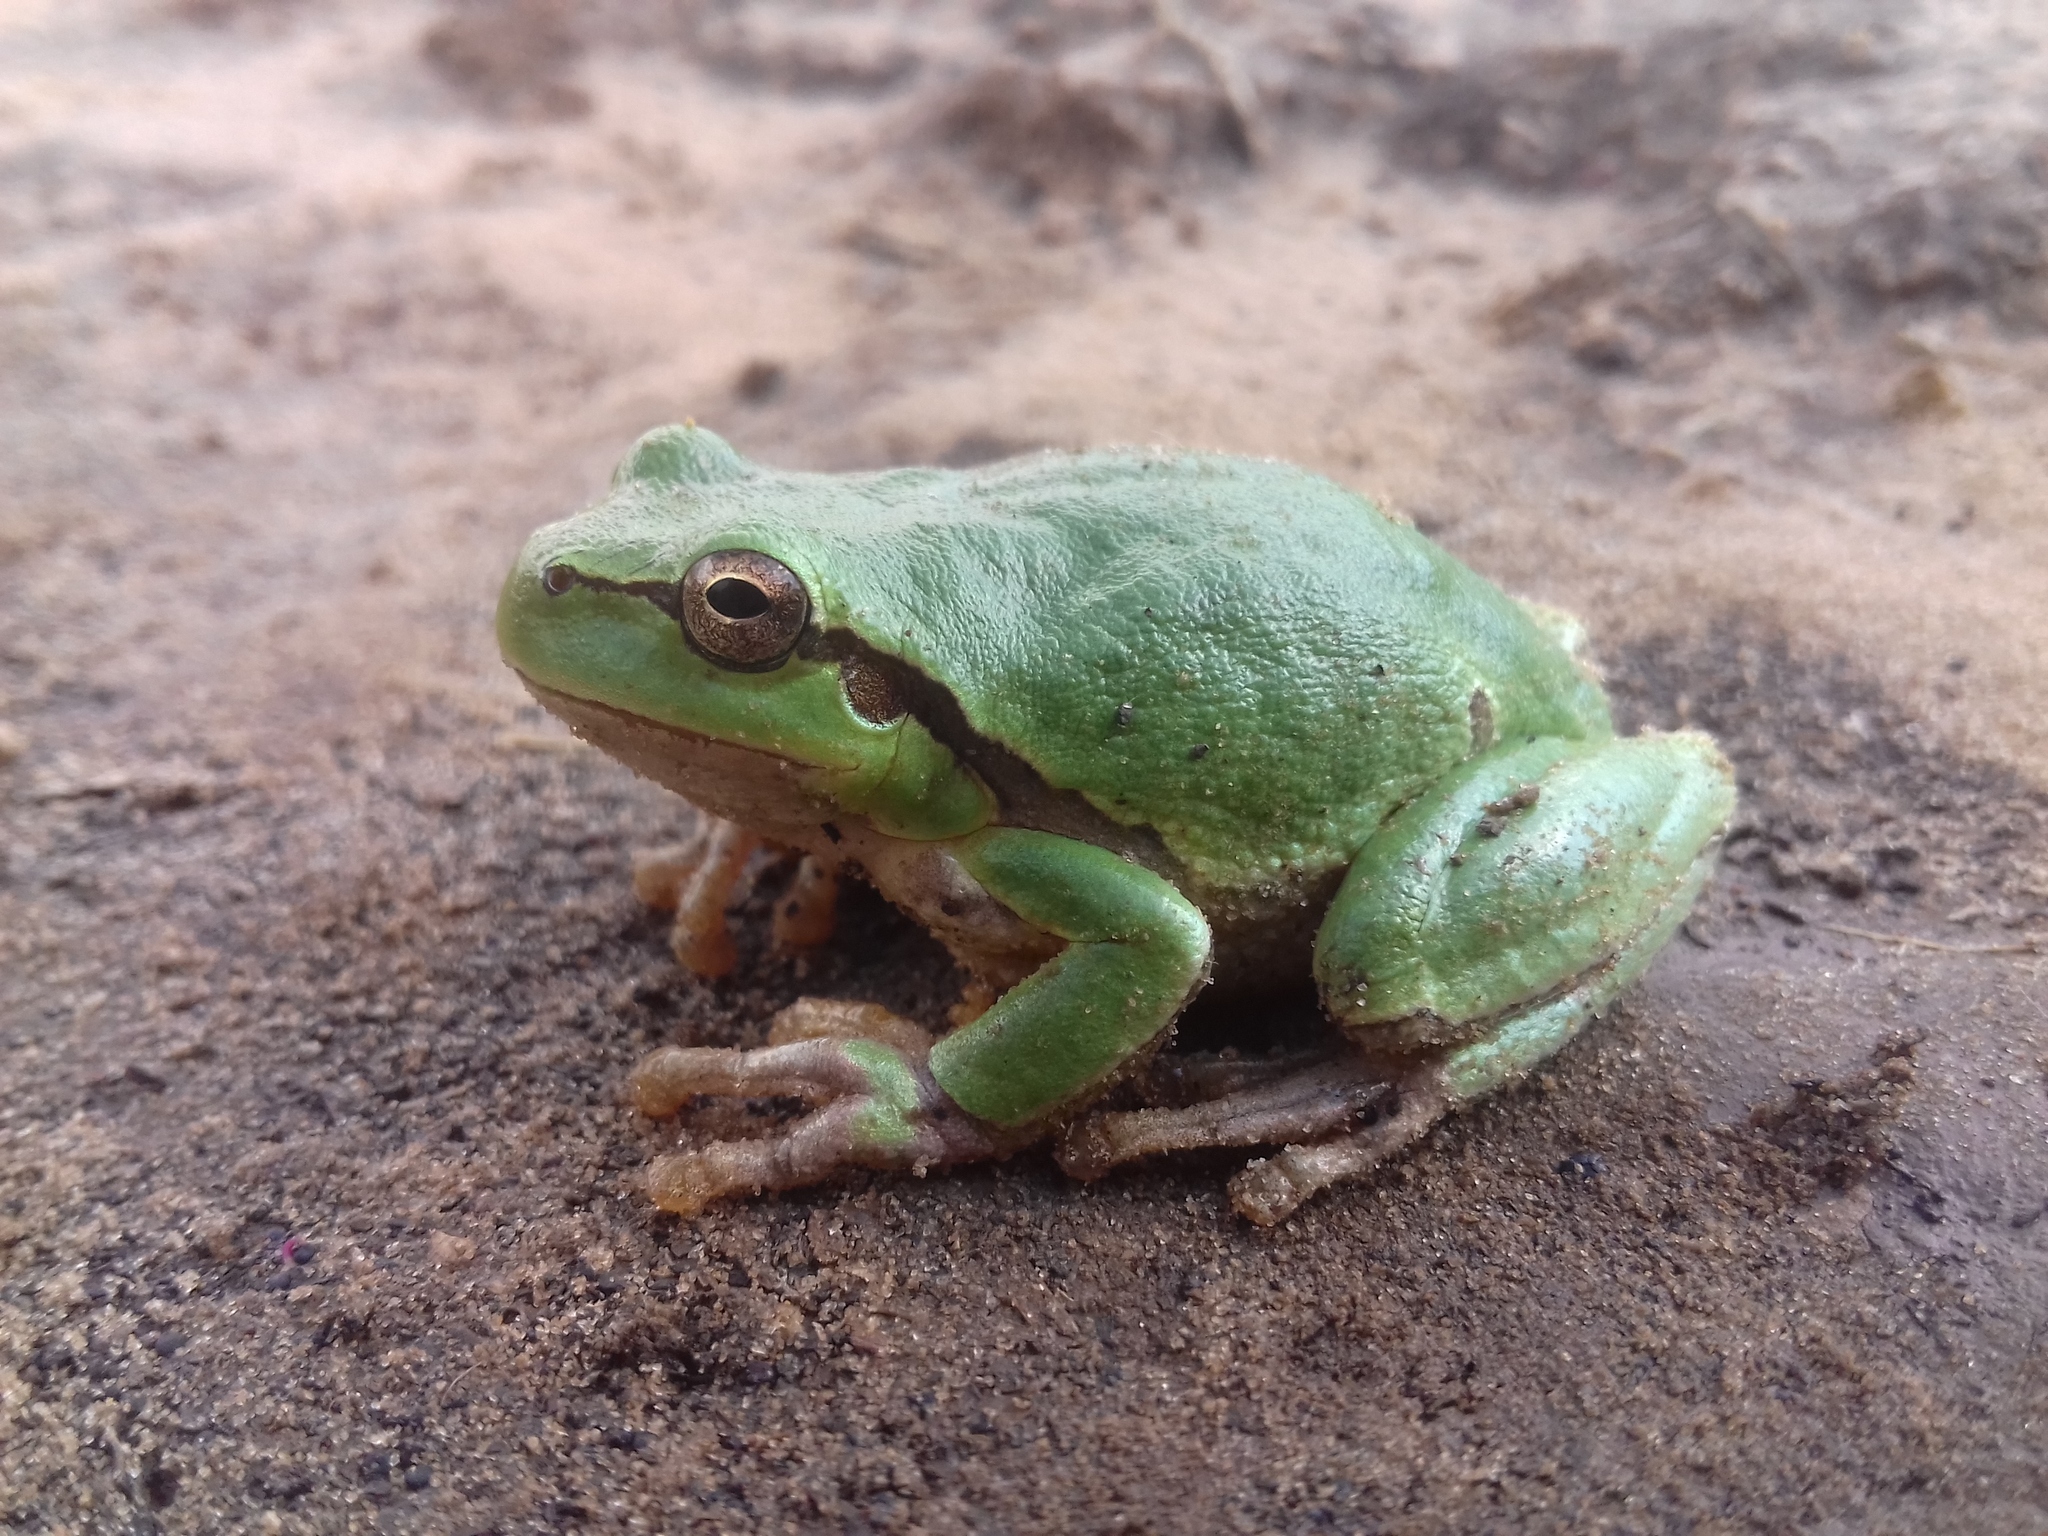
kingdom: Animalia
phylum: Chordata
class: Amphibia
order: Anura
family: Hylidae
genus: Hyla
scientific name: Hyla orientalis
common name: Caucasian treefrog
